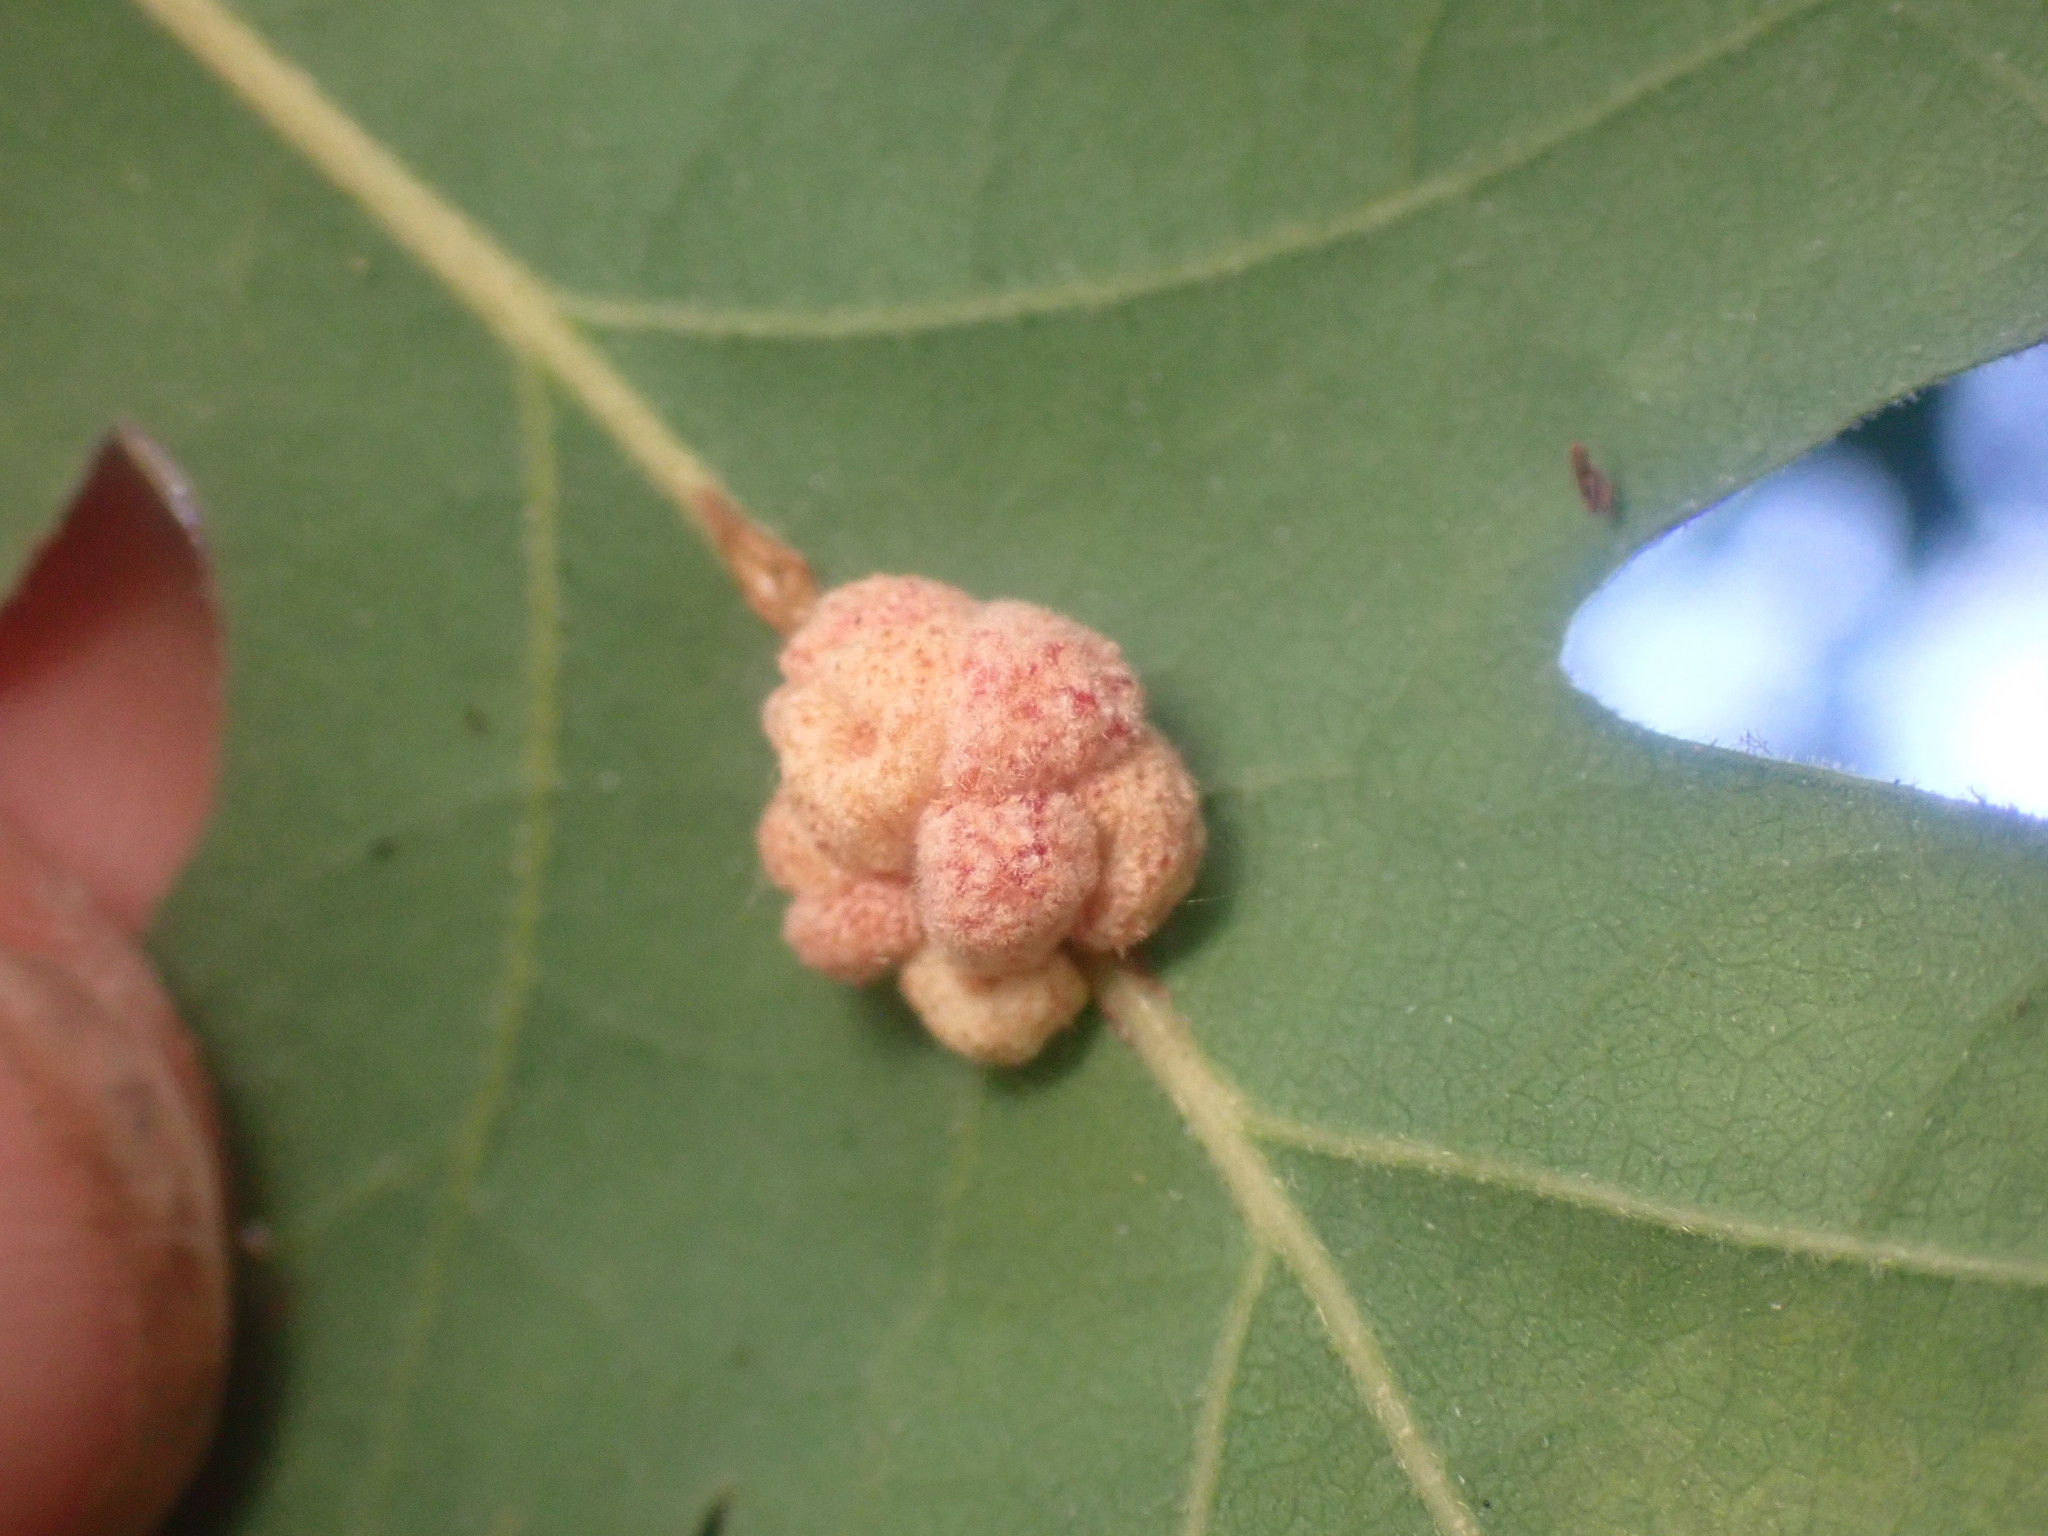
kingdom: Animalia
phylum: Arthropoda
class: Insecta
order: Hymenoptera
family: Cynipidae
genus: Andricus
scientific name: Andricus
